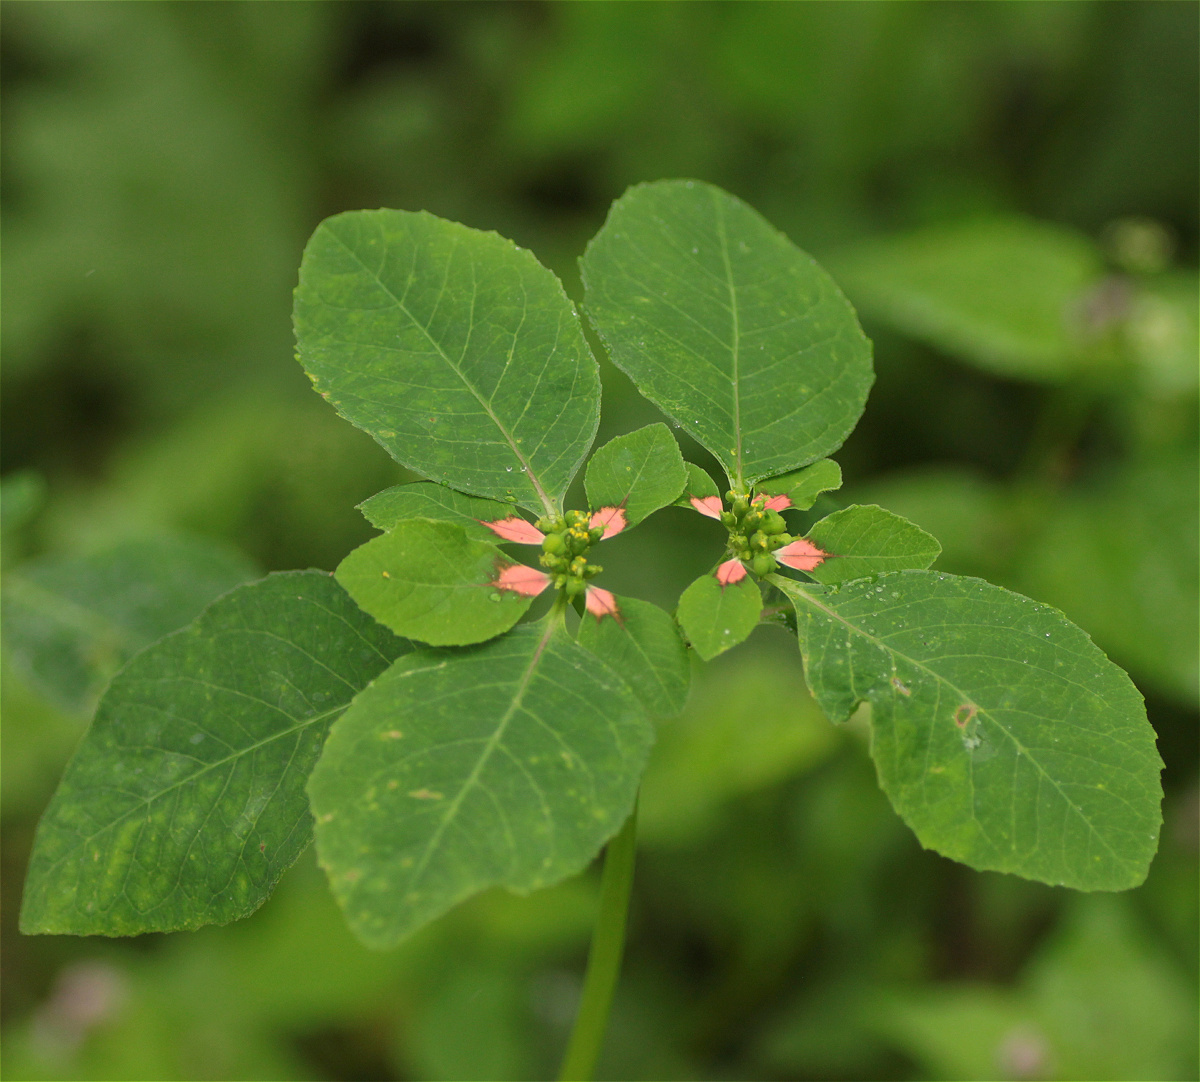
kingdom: Plantae
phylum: Tracheophyta
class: Magnoliopsida
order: Malpighiales
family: Euphorbiaceae
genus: Euphorbia
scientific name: Euphorbia heterophylla
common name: Mexican fireplant
